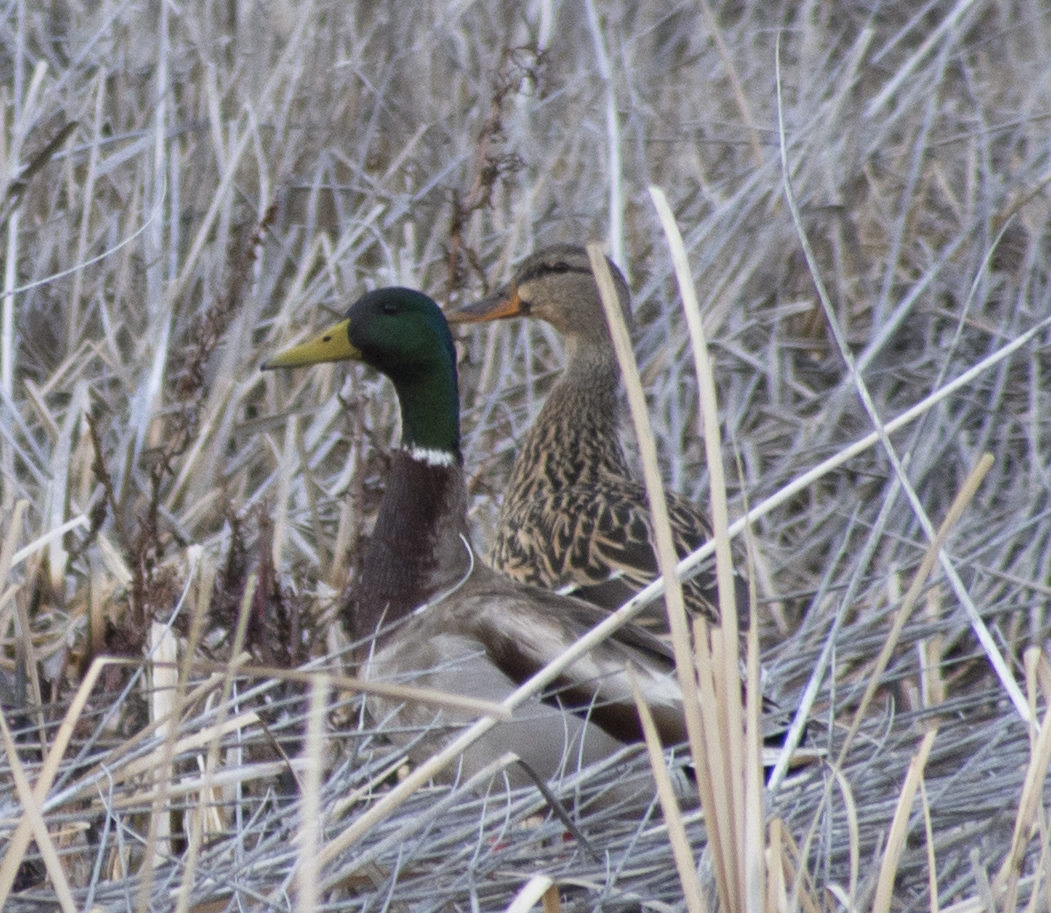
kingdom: Animalia
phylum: Chordata
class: Aves
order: Anseriformes
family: Anatidae
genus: Anas
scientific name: Anas platyrhynchos
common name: Mallard
